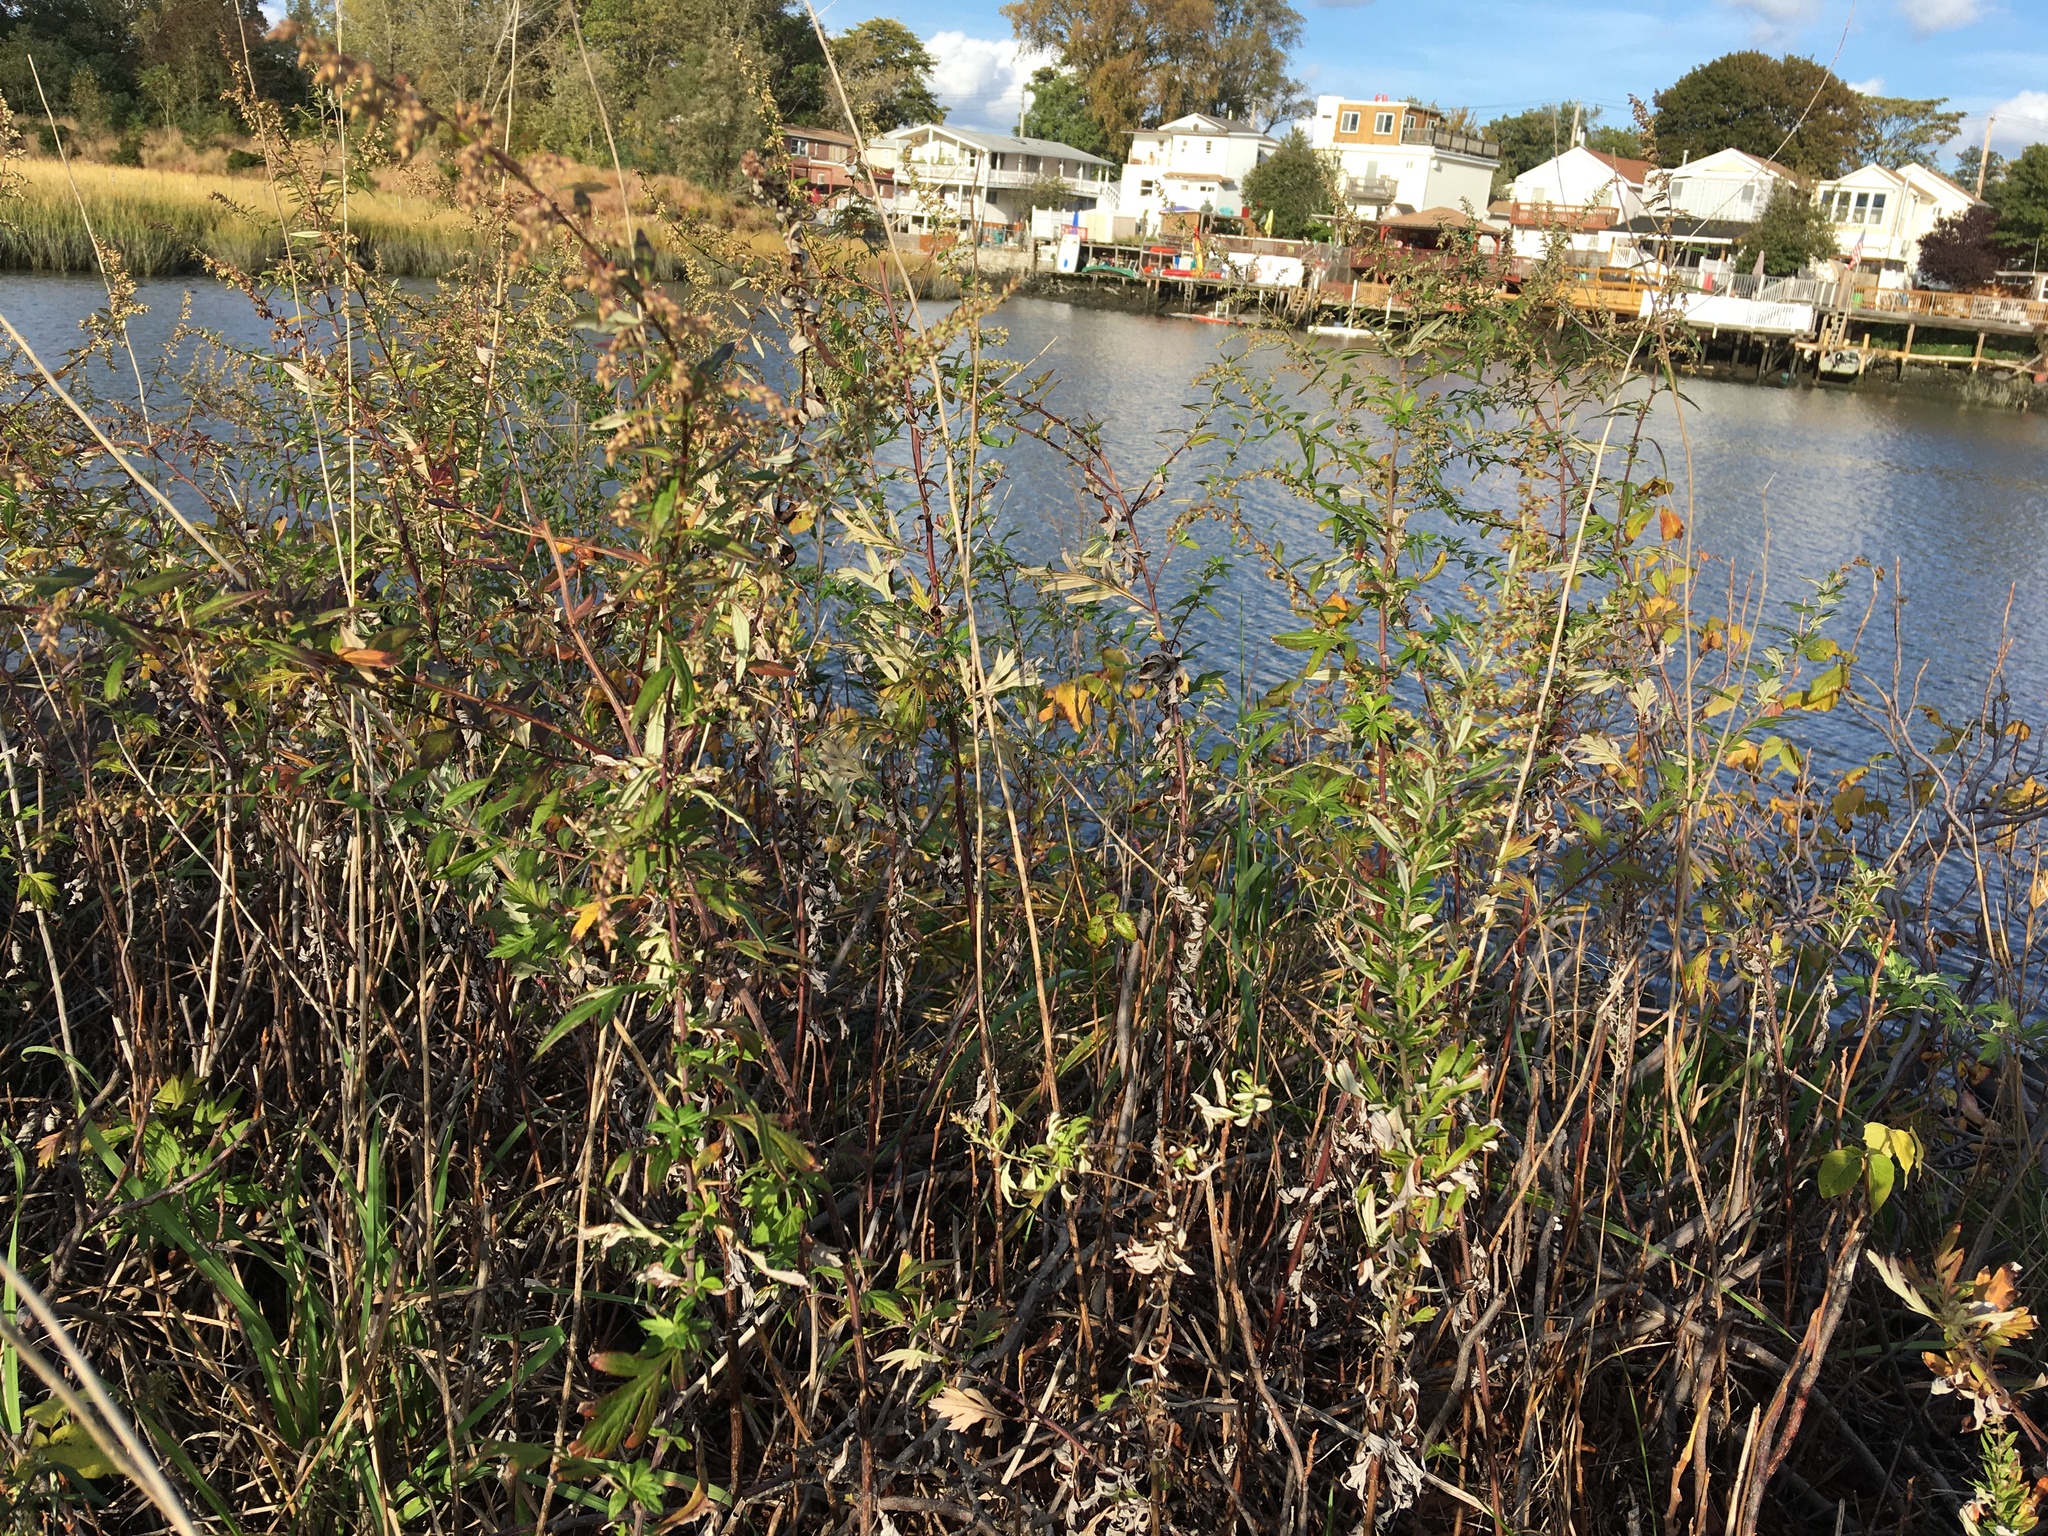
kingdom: Plantae
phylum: Tracheophyta
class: Magnoliopsida
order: Asterales
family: Asteraceae
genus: Artemisia
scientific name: Artemisia vulgaris
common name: Mugwort
